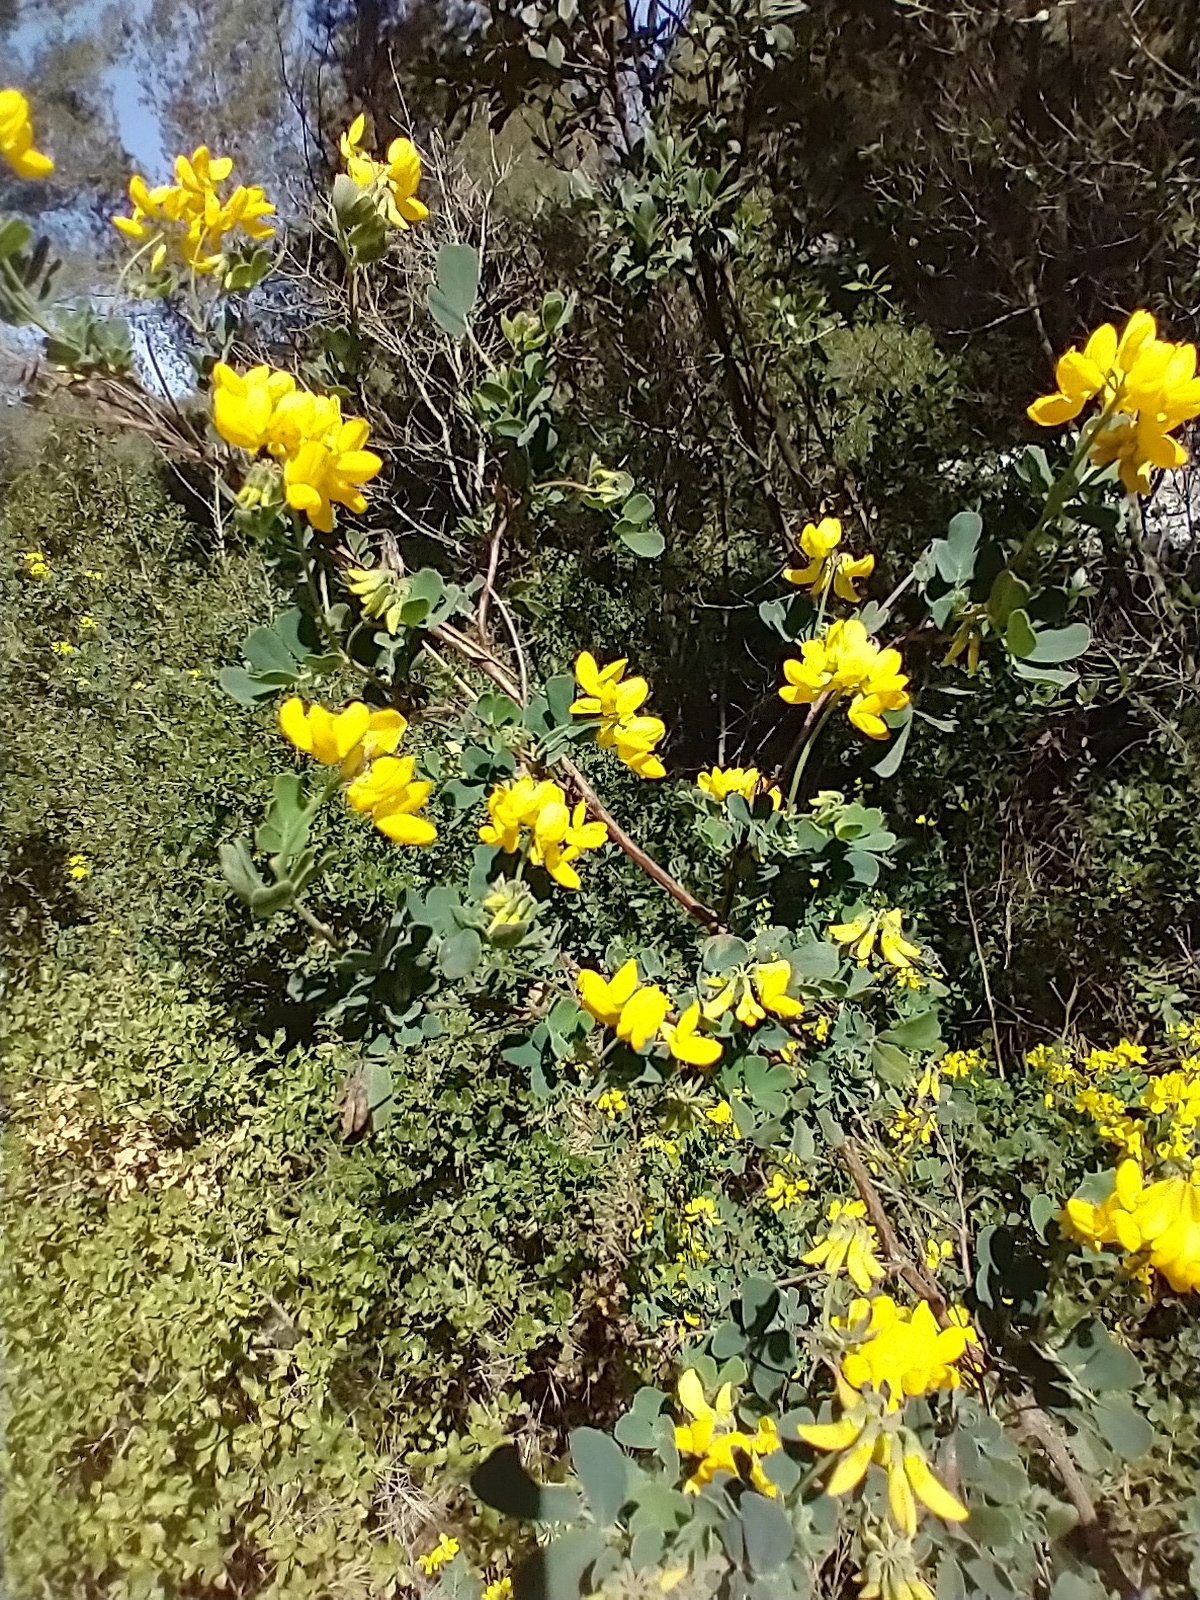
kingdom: Plantae
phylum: Tracheophyta
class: Magnoliopsida
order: Fabales
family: Fabaceae
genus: Coronilla
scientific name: Coronilla valentina
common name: Shrubby scorpion-vetch
